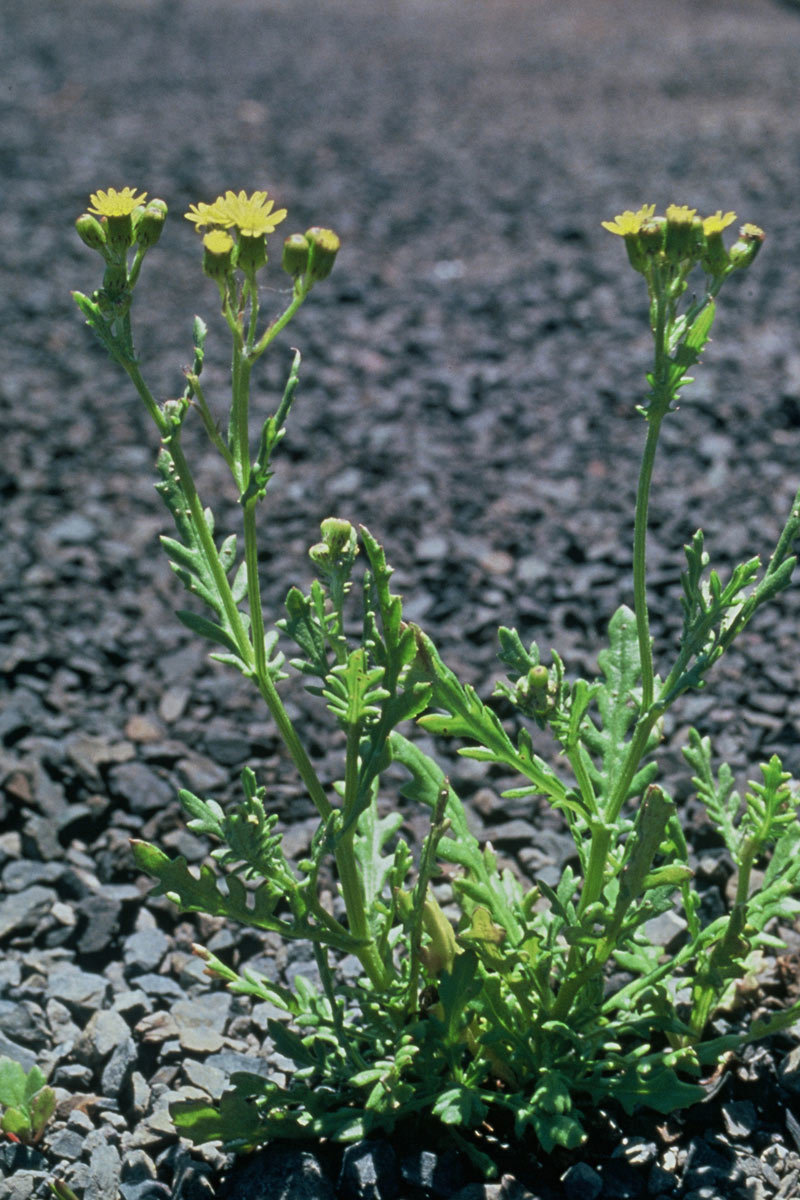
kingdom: Plantae
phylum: Tracheophyta
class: Magnoliopsida
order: Asterales
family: Asteraceae
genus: Senecio
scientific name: Senecio pokohinuensis
